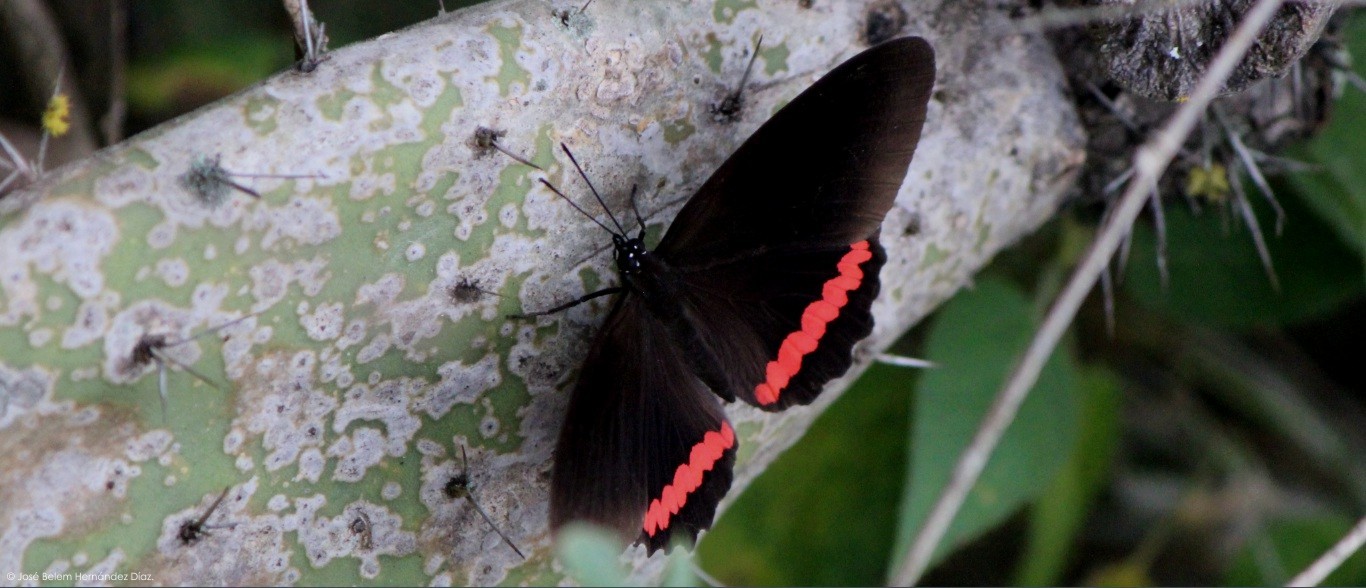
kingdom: Animalia
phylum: Arthropoda
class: Insecta
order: Lepidoptera
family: Nymphalidae
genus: Biblis
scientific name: Biblis aganisa
